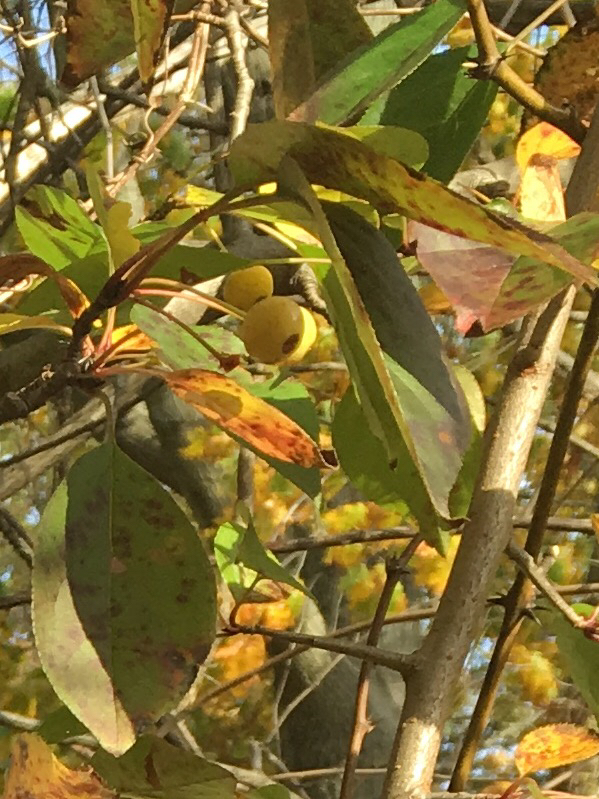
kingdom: Plantae
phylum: Tracheophyta
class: Magnoliopsida
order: Rosales
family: Rosaceae
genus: Malus
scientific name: Malus hupehensis
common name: Chinese crab apple
